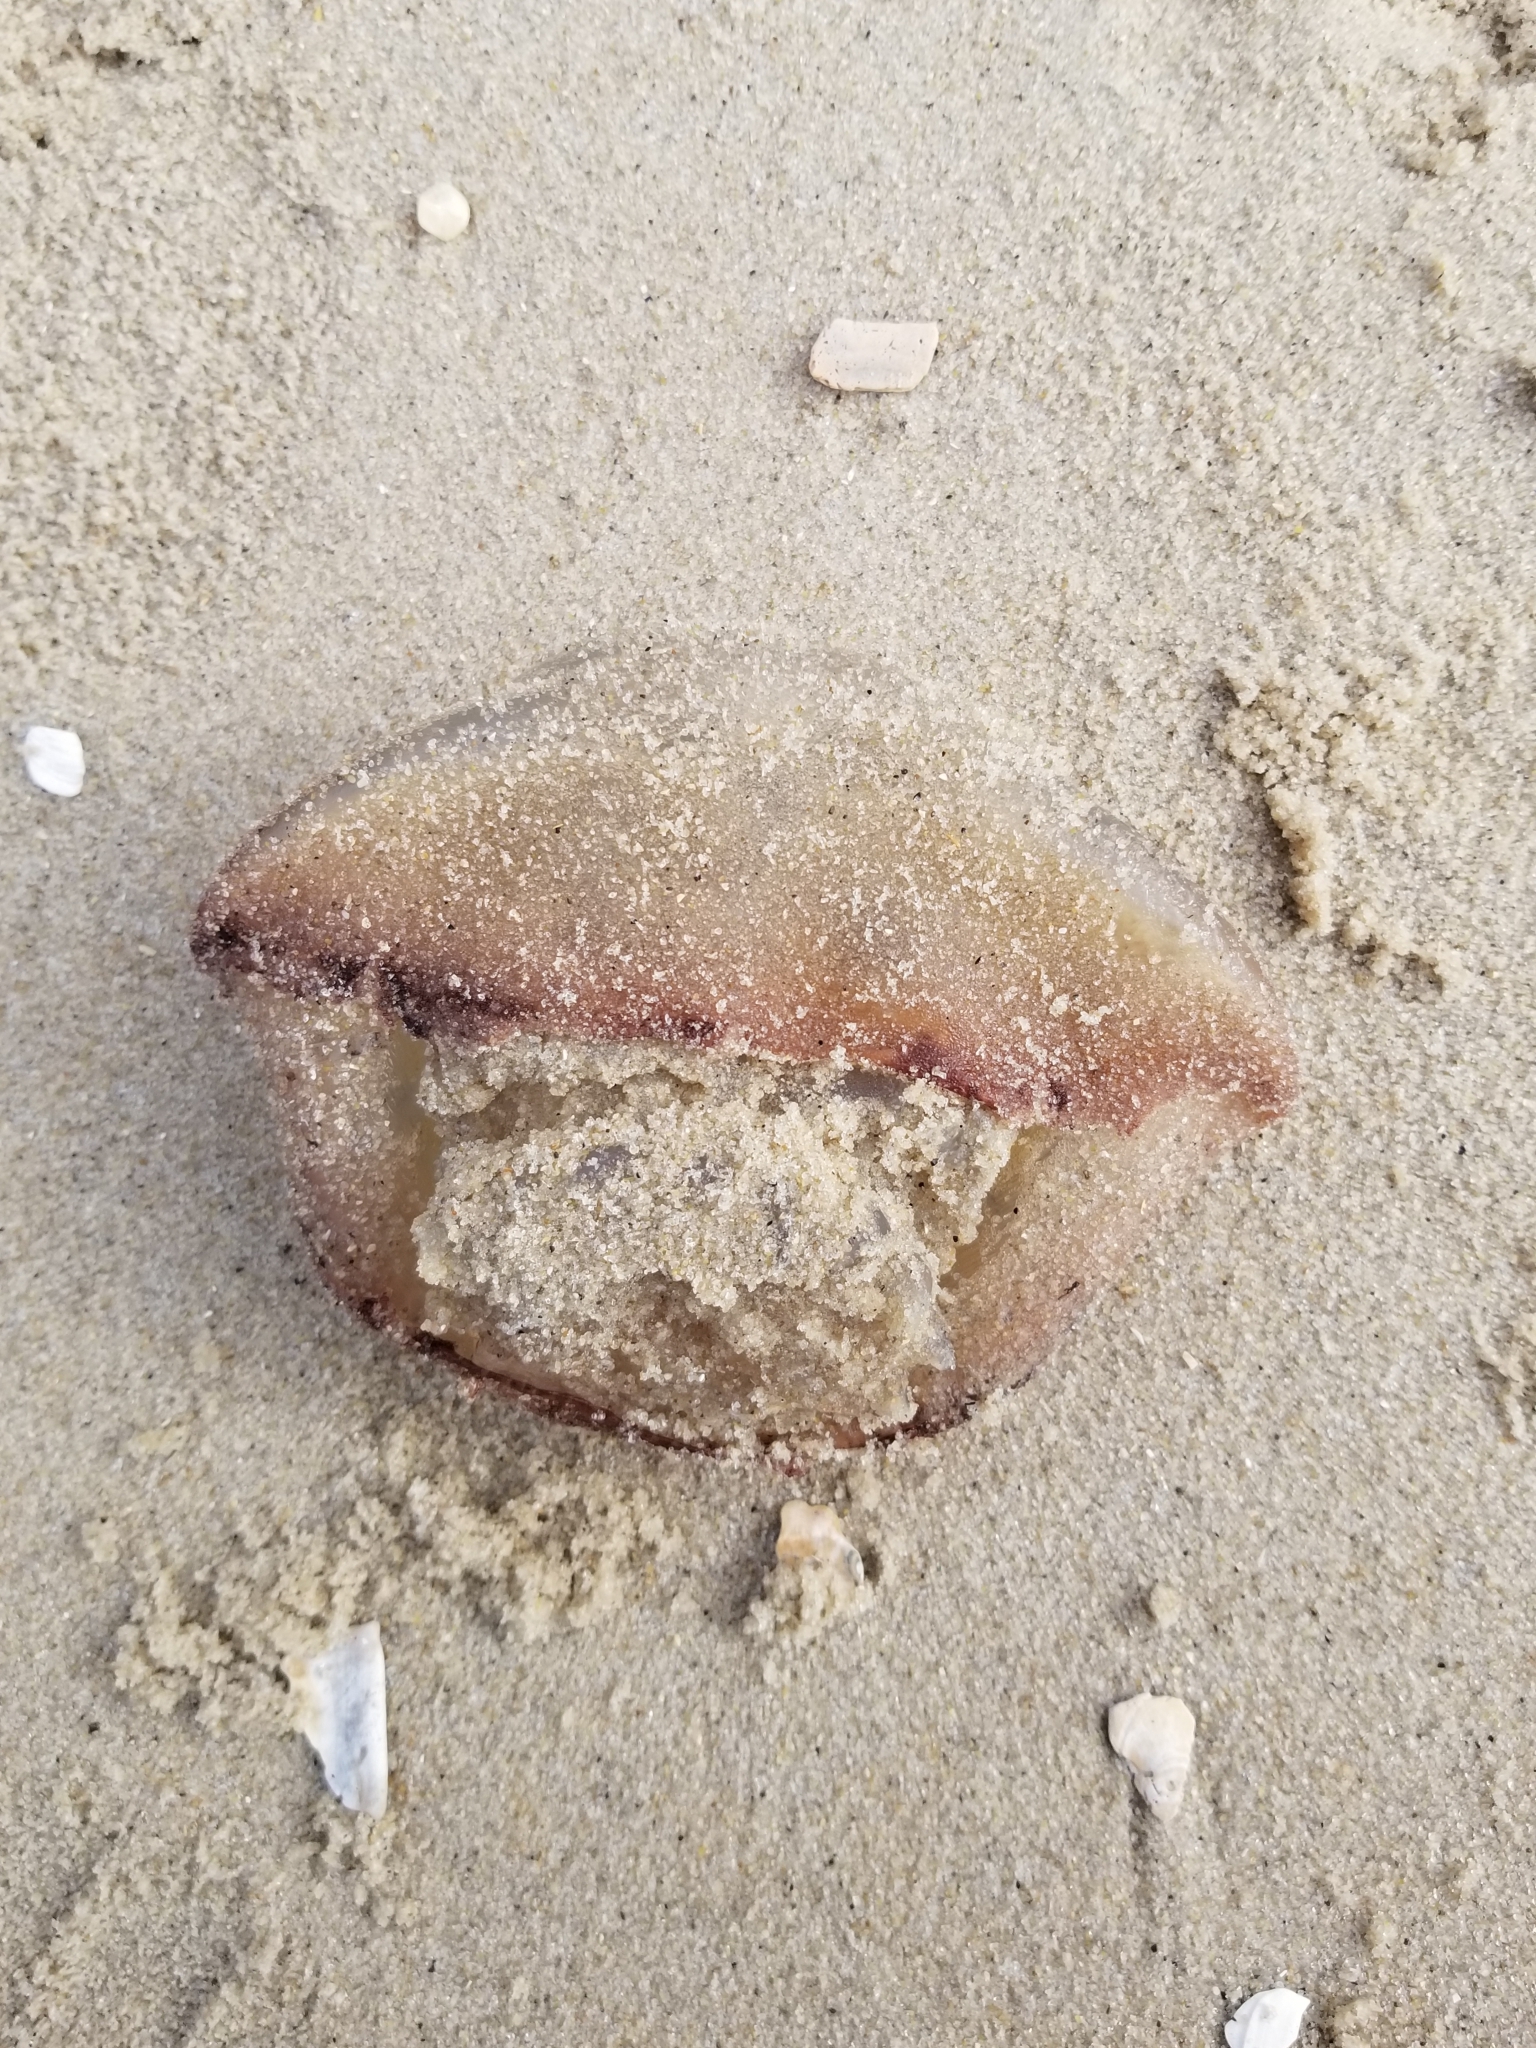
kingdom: Animalia
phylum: Cnidaria
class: Scyphozoa
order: Rhizostomeae
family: Stomolophidae
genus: Stomolophus
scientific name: Stomolophus meleagris
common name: Cabbagehead
